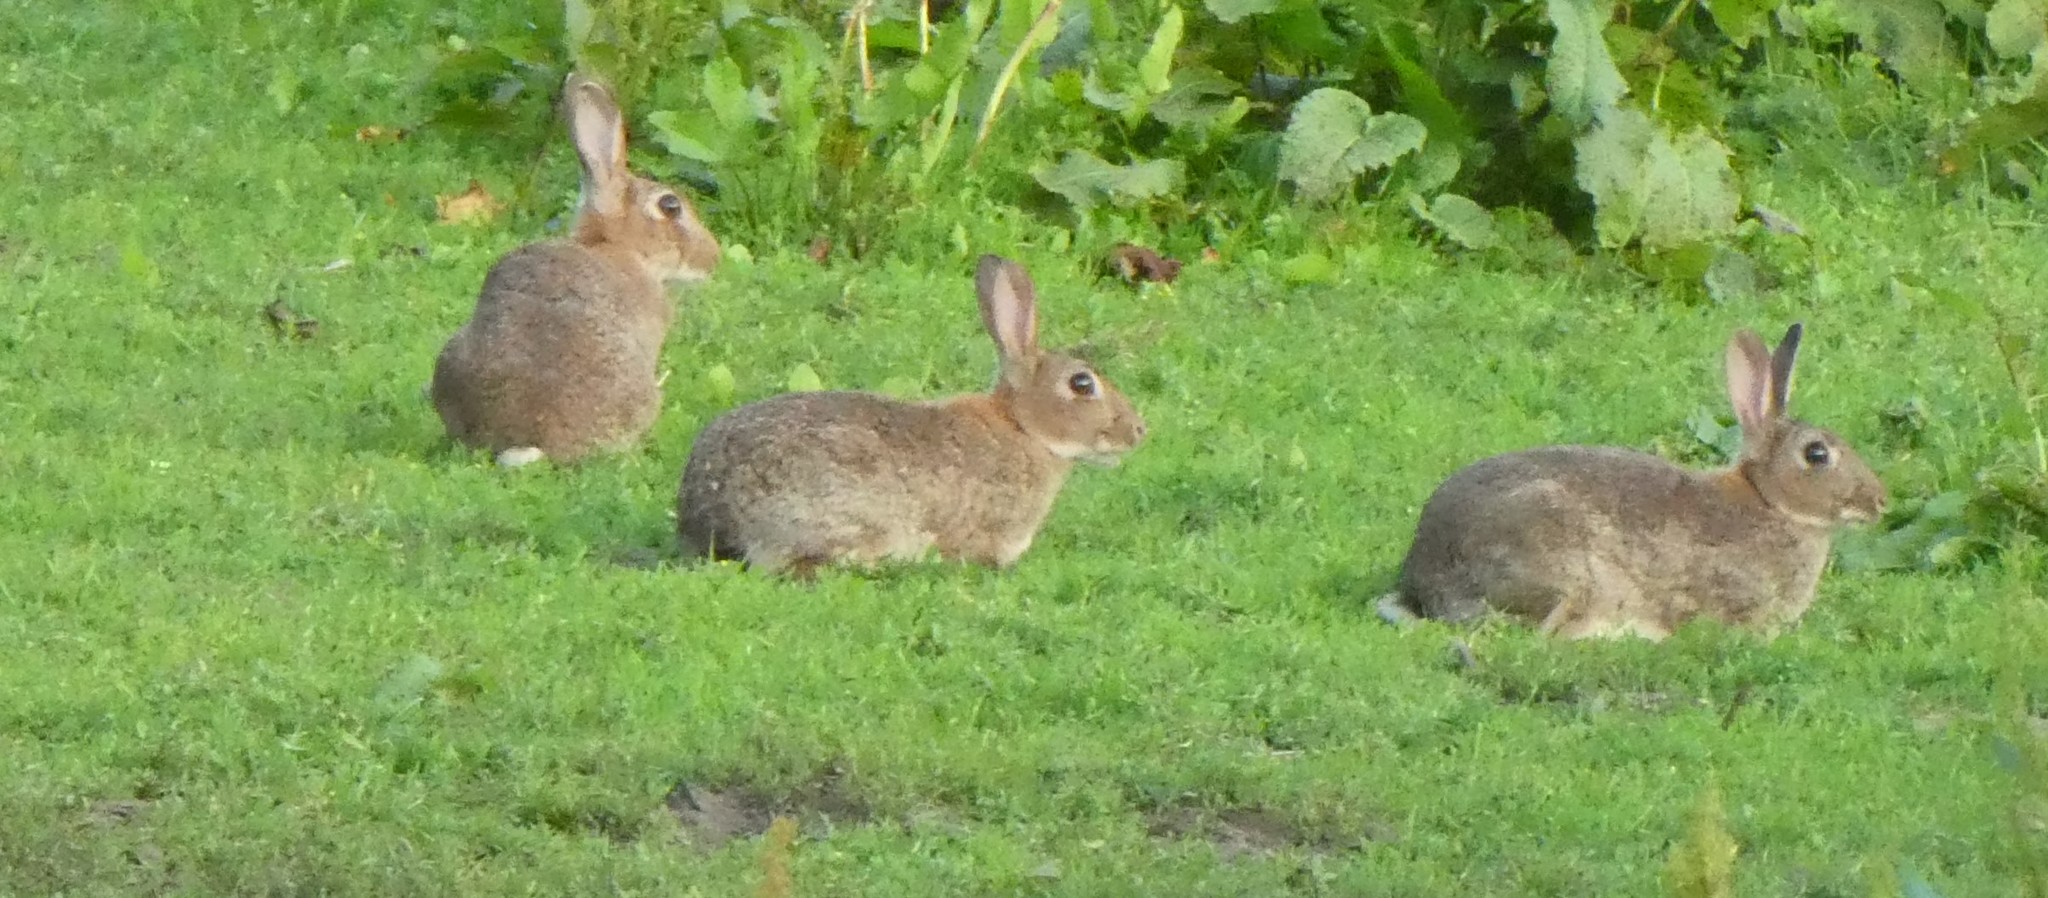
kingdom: Animalia
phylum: Chordata
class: Mammalia
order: Lagomorpha
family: Leporidae
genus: Oryctolagus
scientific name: Oryctolagus cuniculus
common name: European rabbit
